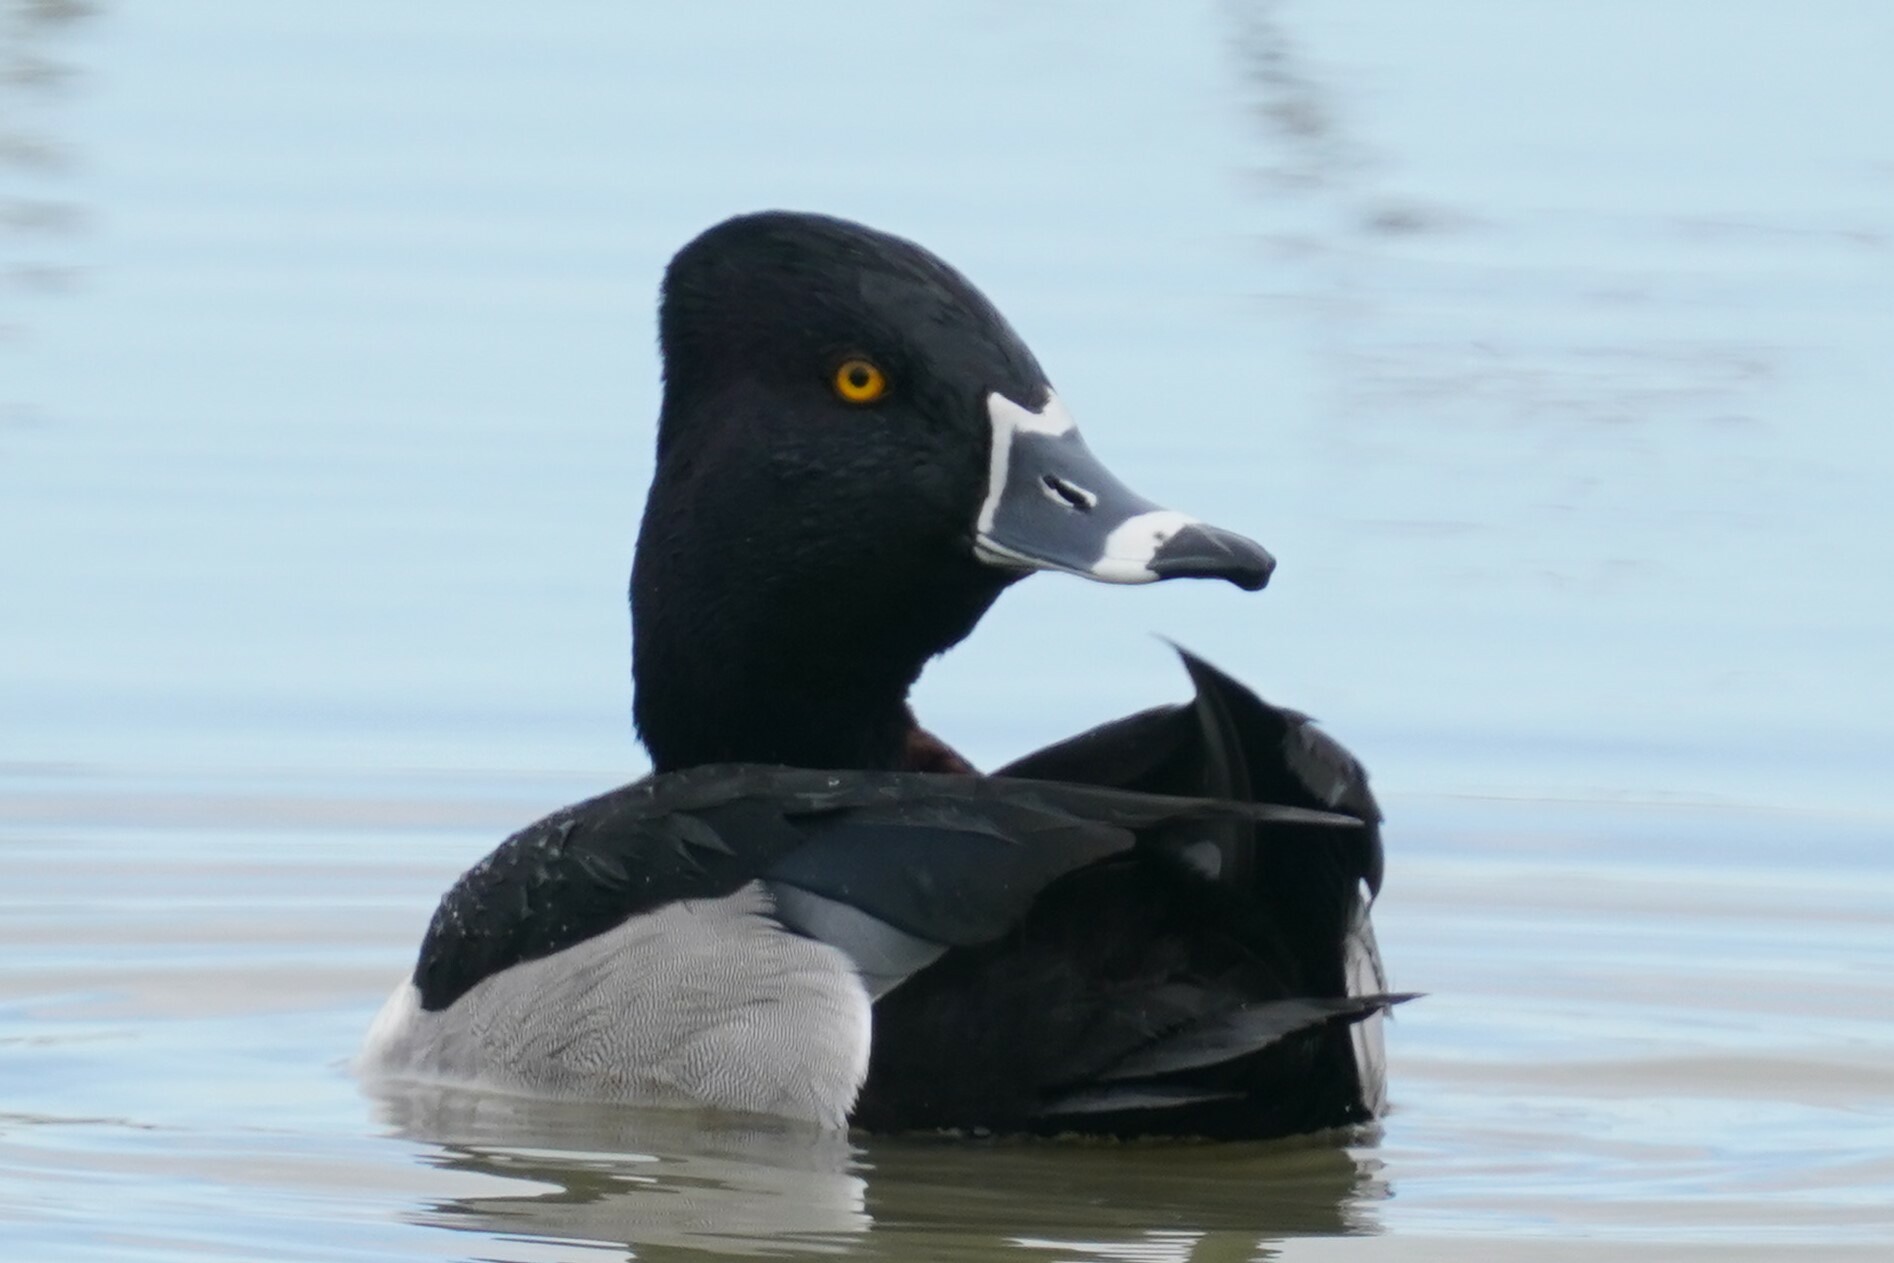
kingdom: Animalia
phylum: Chordata
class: Aves
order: Anseriformes
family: Anatidae
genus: Aythya
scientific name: Aythya collaris
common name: Ring-necked duck
